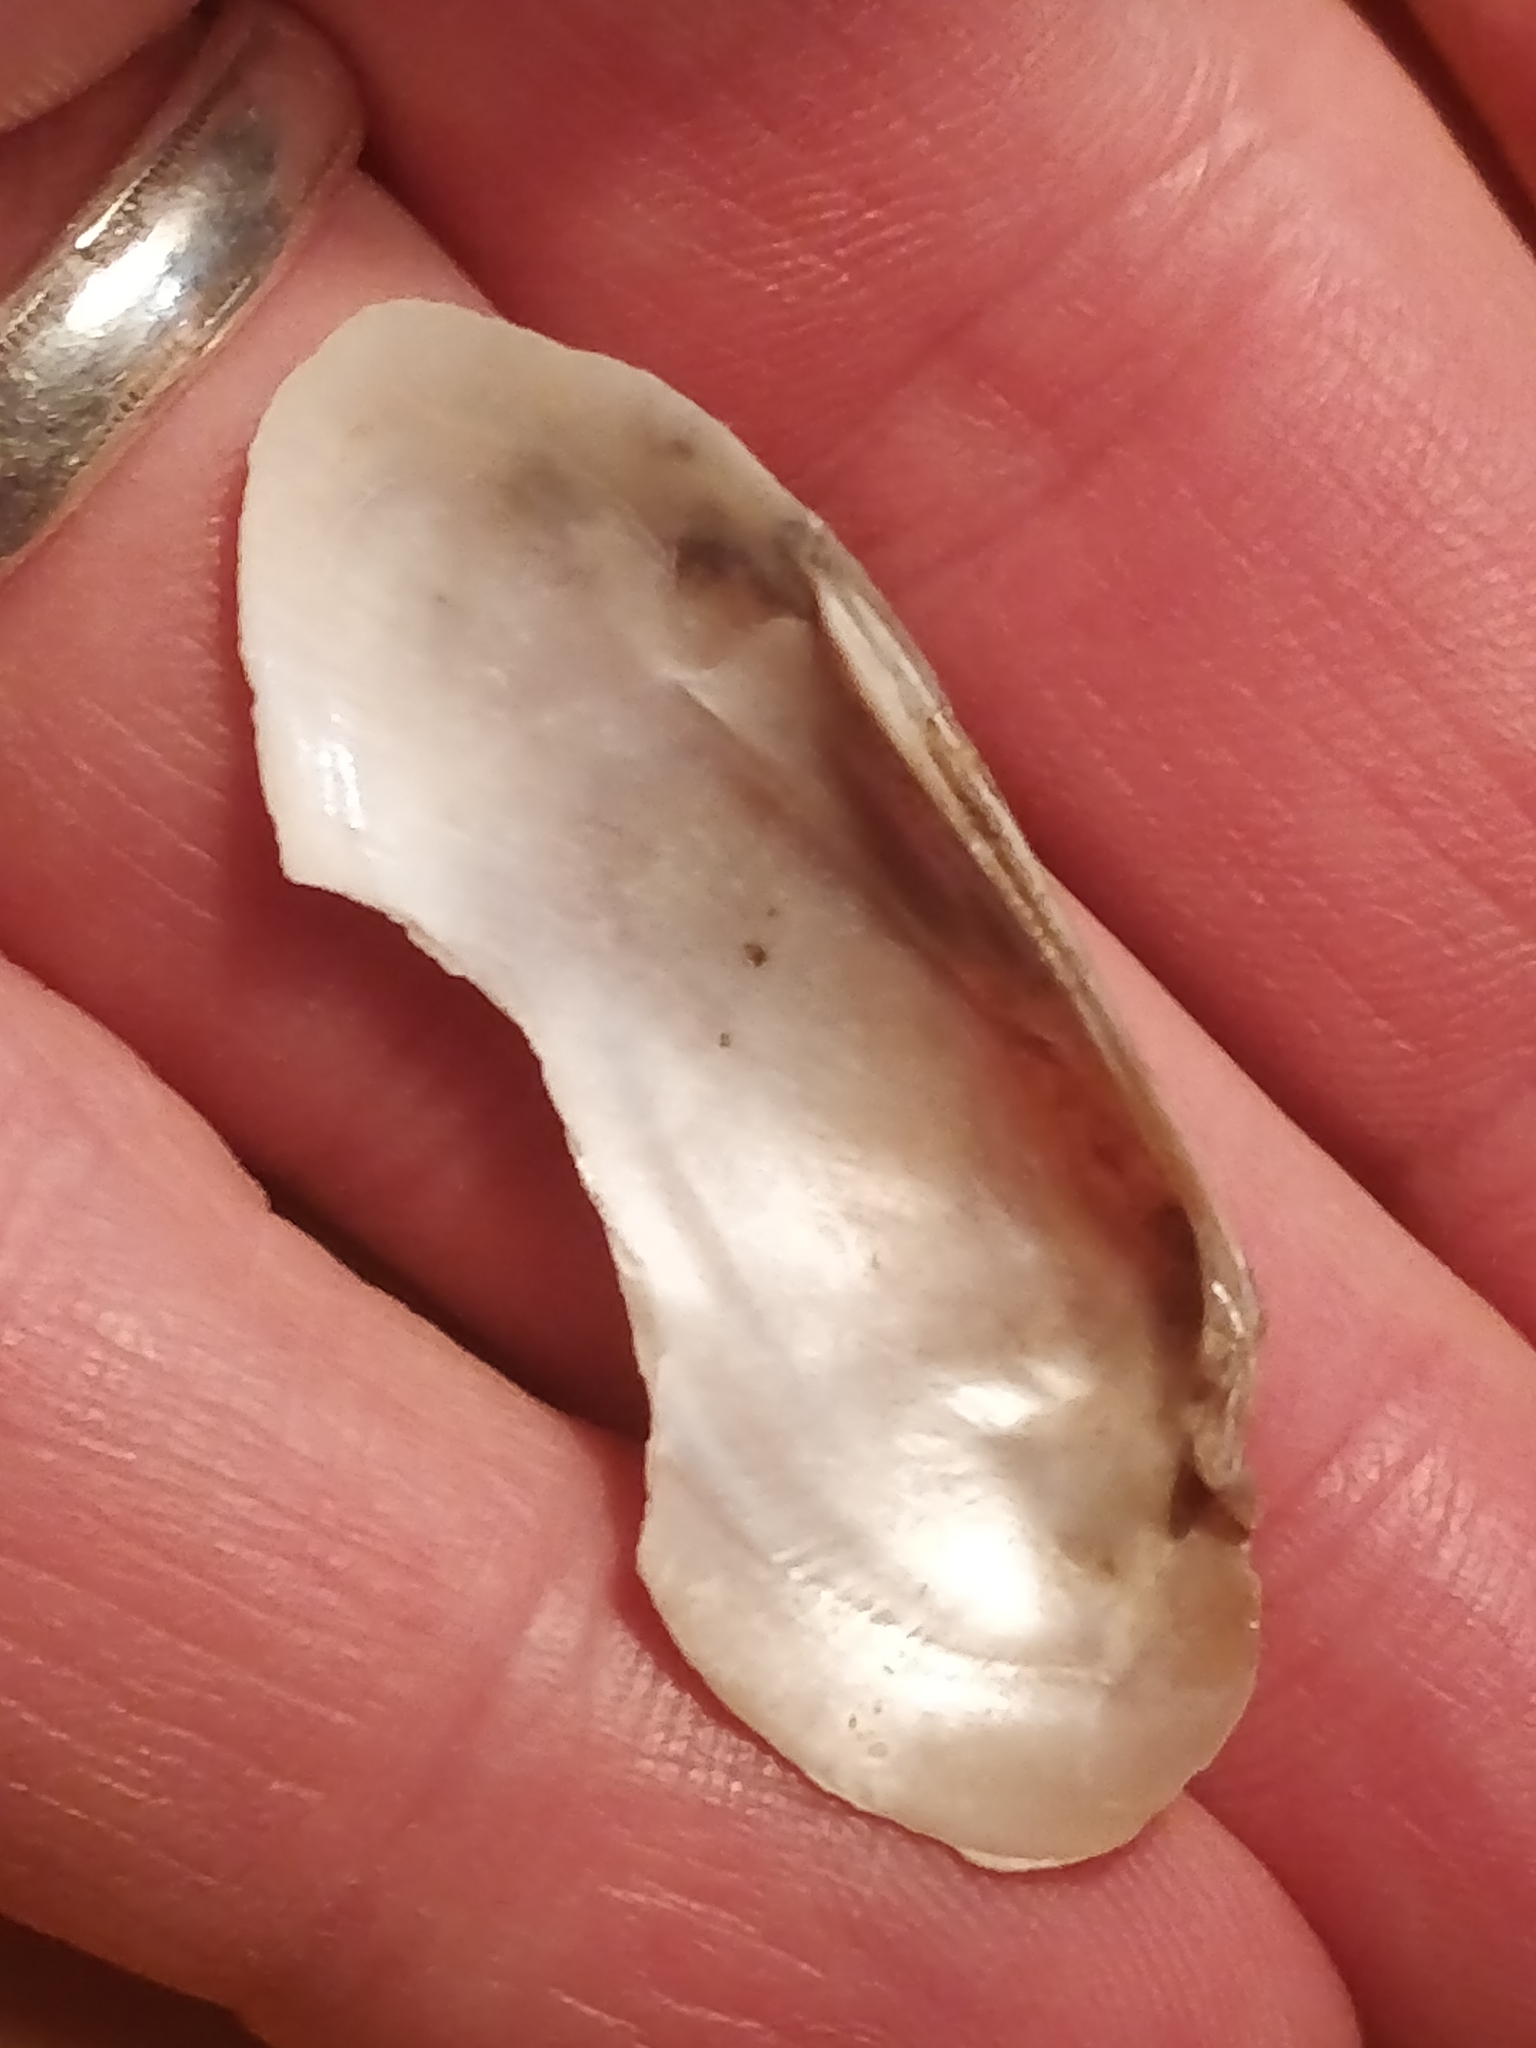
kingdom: Animalia
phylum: Mollusca
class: Bivalvia
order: Unionida
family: Unionidae
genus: Lampsilis
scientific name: Lampsilis teres
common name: Yellow sandshell
